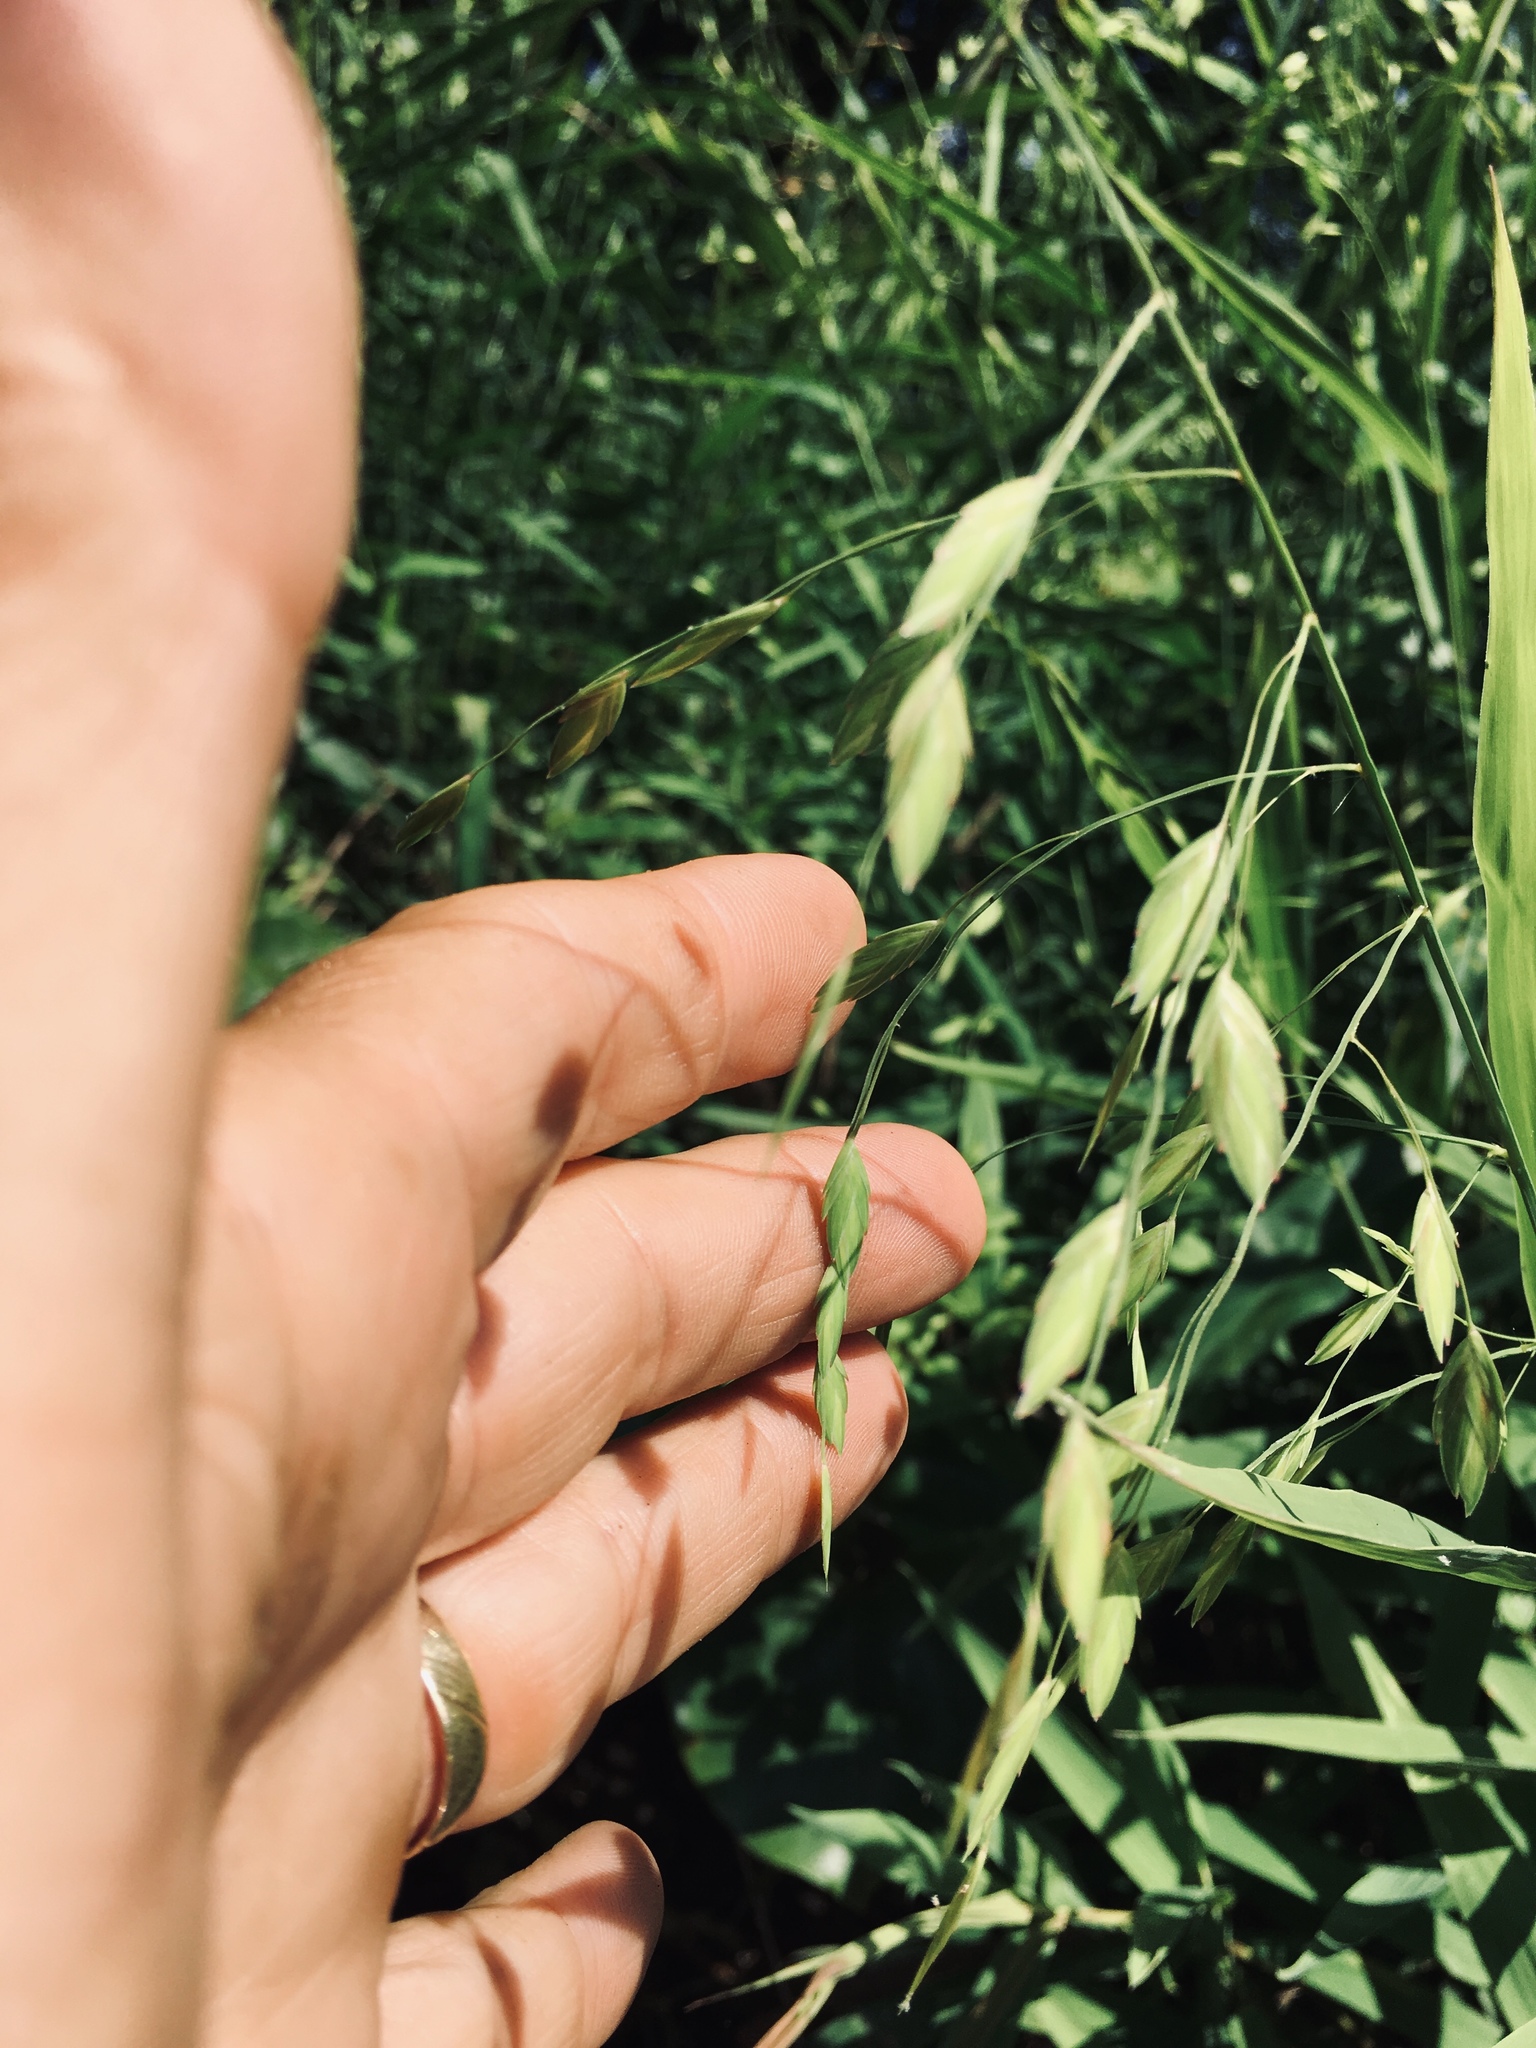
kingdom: Plantae
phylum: Tracheophyta
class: Liliopsida
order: Poales
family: Poaceae
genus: Chasmanthium
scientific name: Chasmanthium latifolium
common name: Broad-leaved chasmanthium
